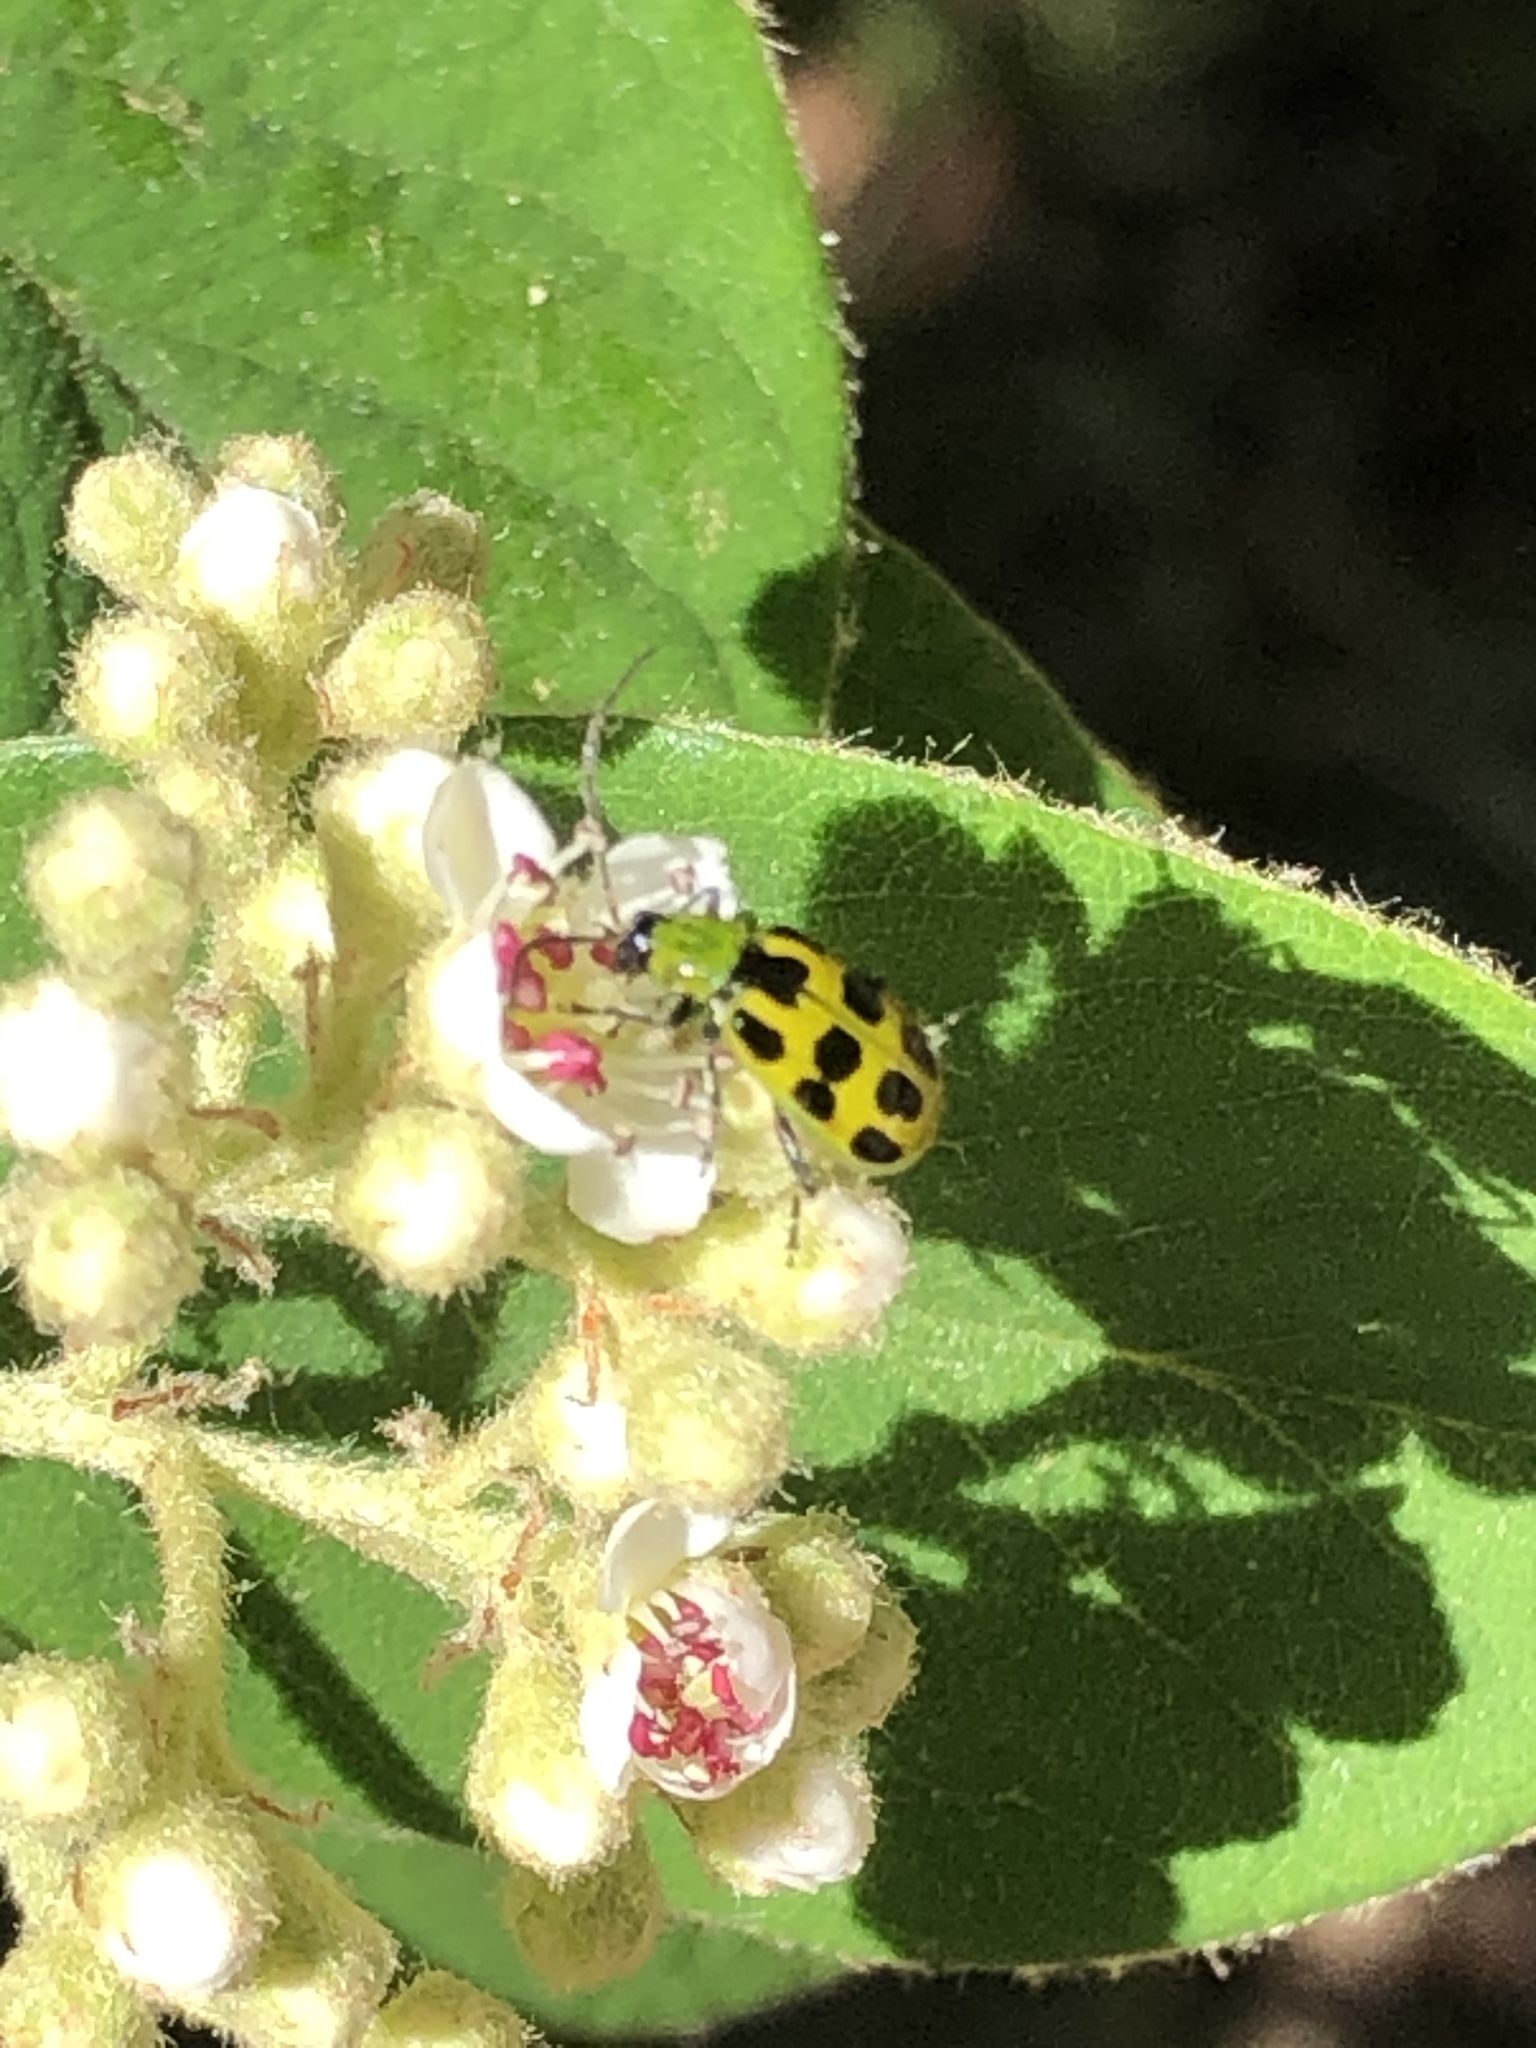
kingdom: Animalia
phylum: Arthropoda
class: Insecta
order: Coleoptera
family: Chrysomelidae
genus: Diabrotica
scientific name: Diabrotica undecimpunctata
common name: Spotted cucumber beetle
